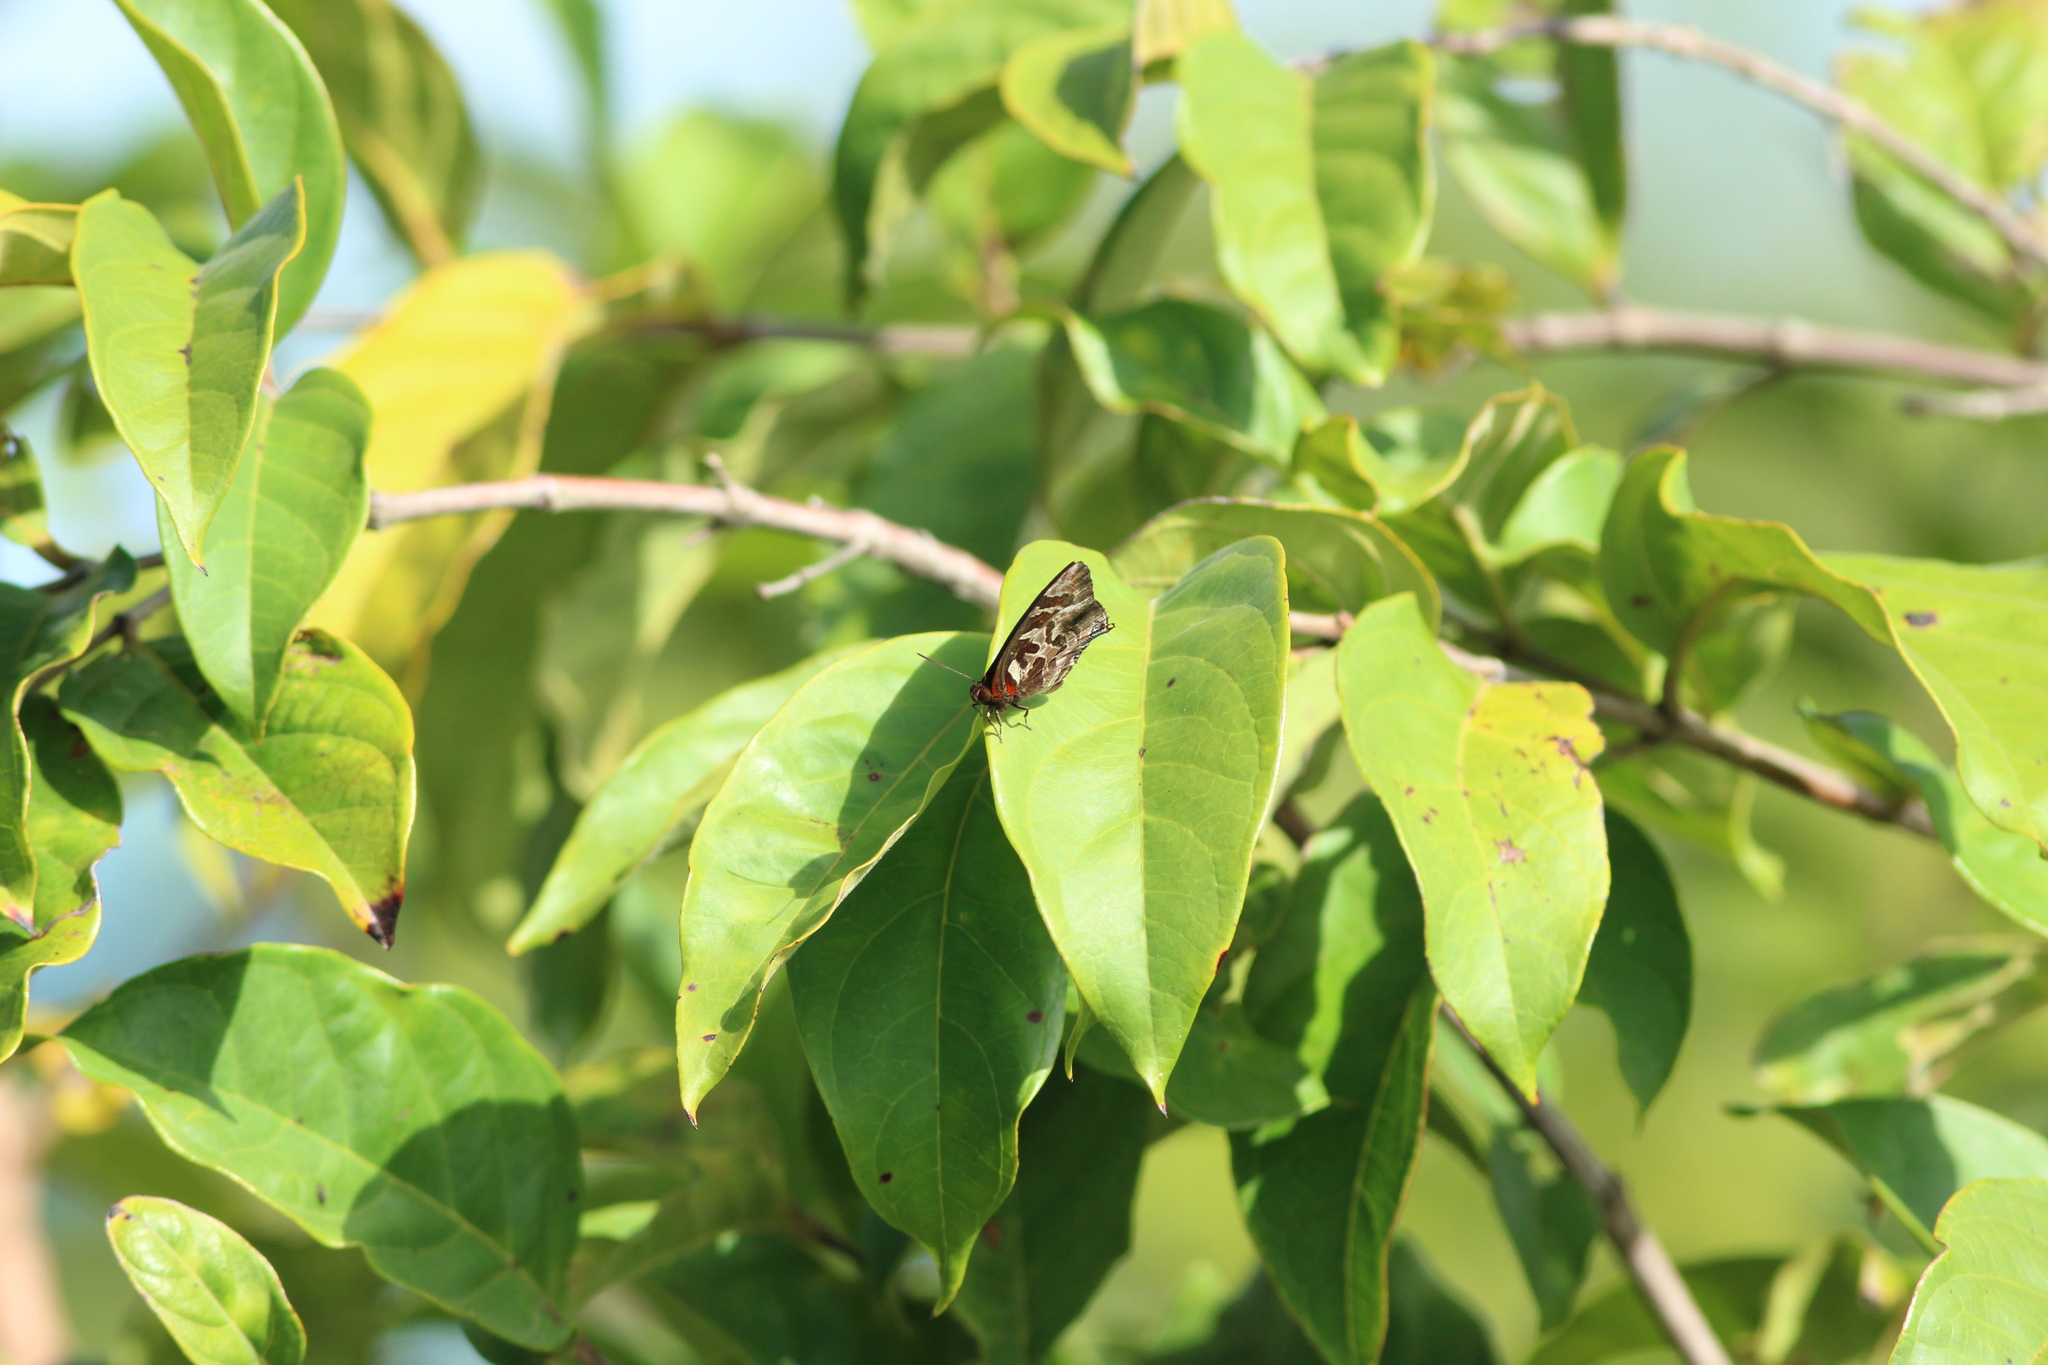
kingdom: Animalia
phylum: Arthropoda
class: Insecta
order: Lepidoptera
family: Lycaenidae
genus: Flos
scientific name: Flos
